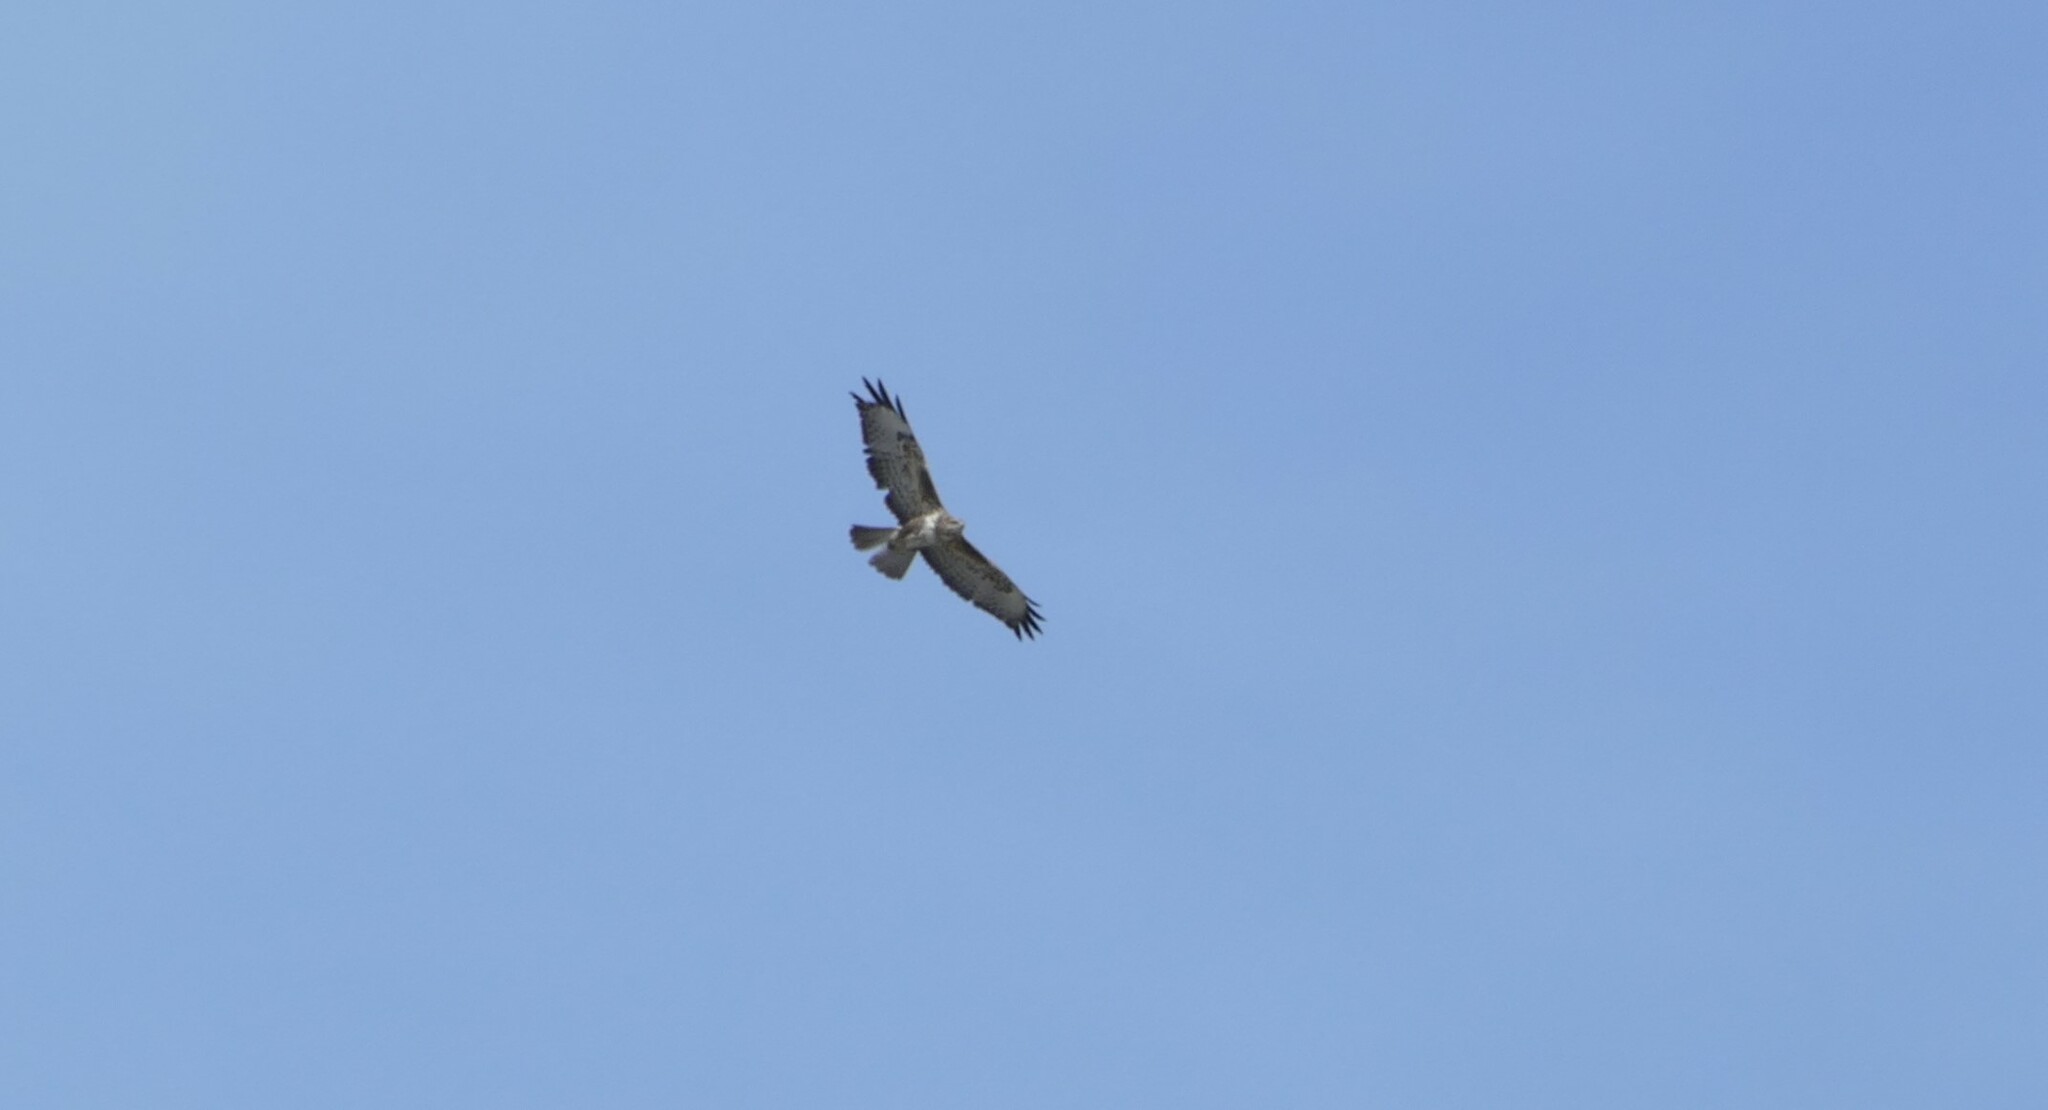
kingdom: Animalia
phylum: Chordata
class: Aves
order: Accipitriformes
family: Accipitridae
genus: Buteo
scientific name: Buteo buteo
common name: Common buzzard
